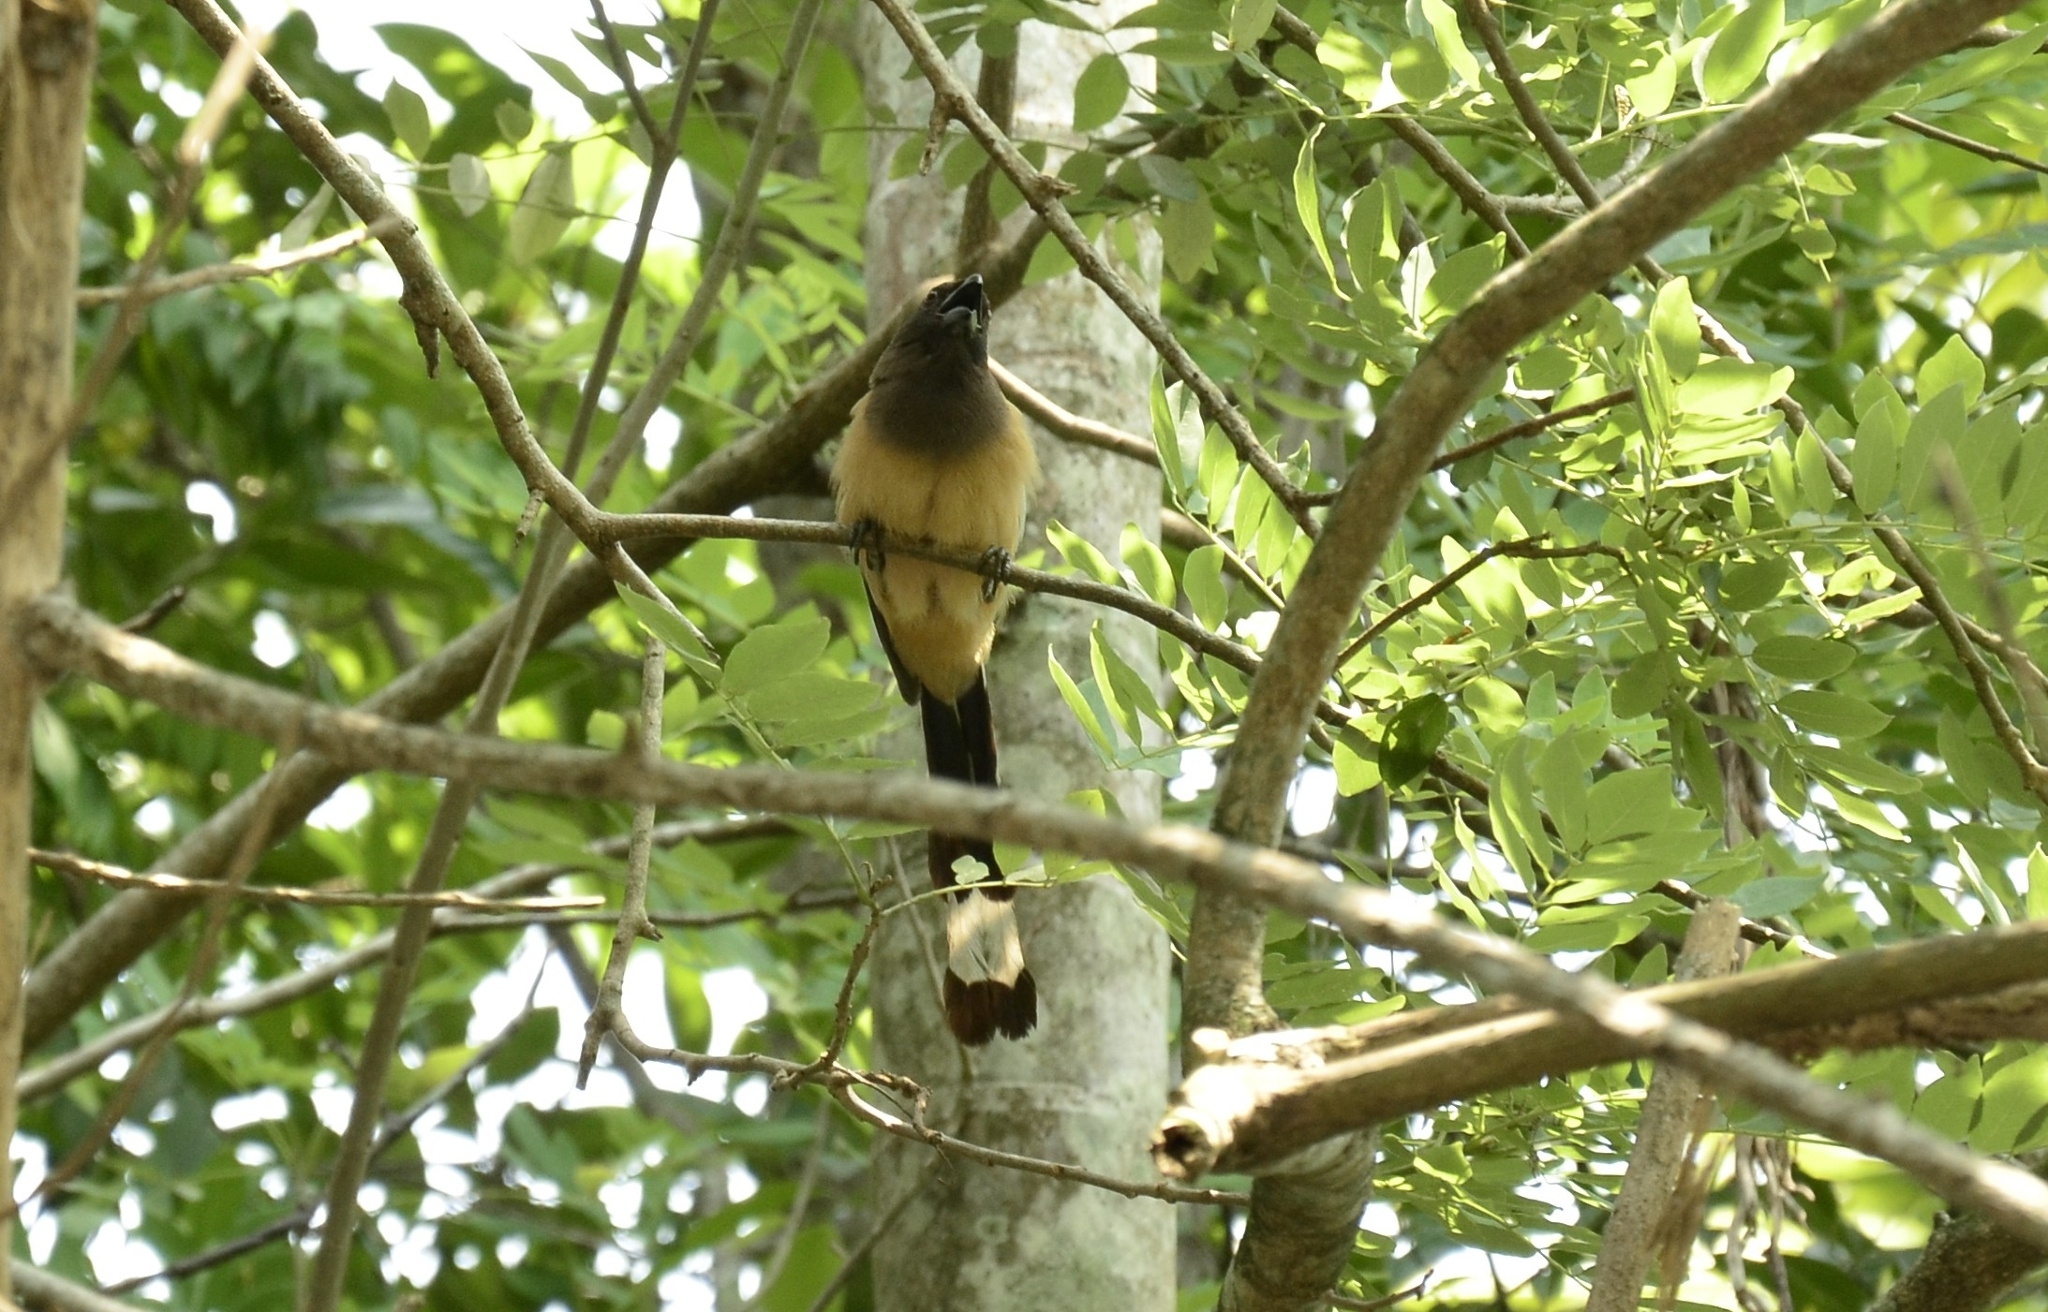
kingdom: Animalia
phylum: Chordata
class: Aves
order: Passeriformes
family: Corvidae
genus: Dendrocitta
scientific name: Dendrocitta vagabunda
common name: Rufous treepie
